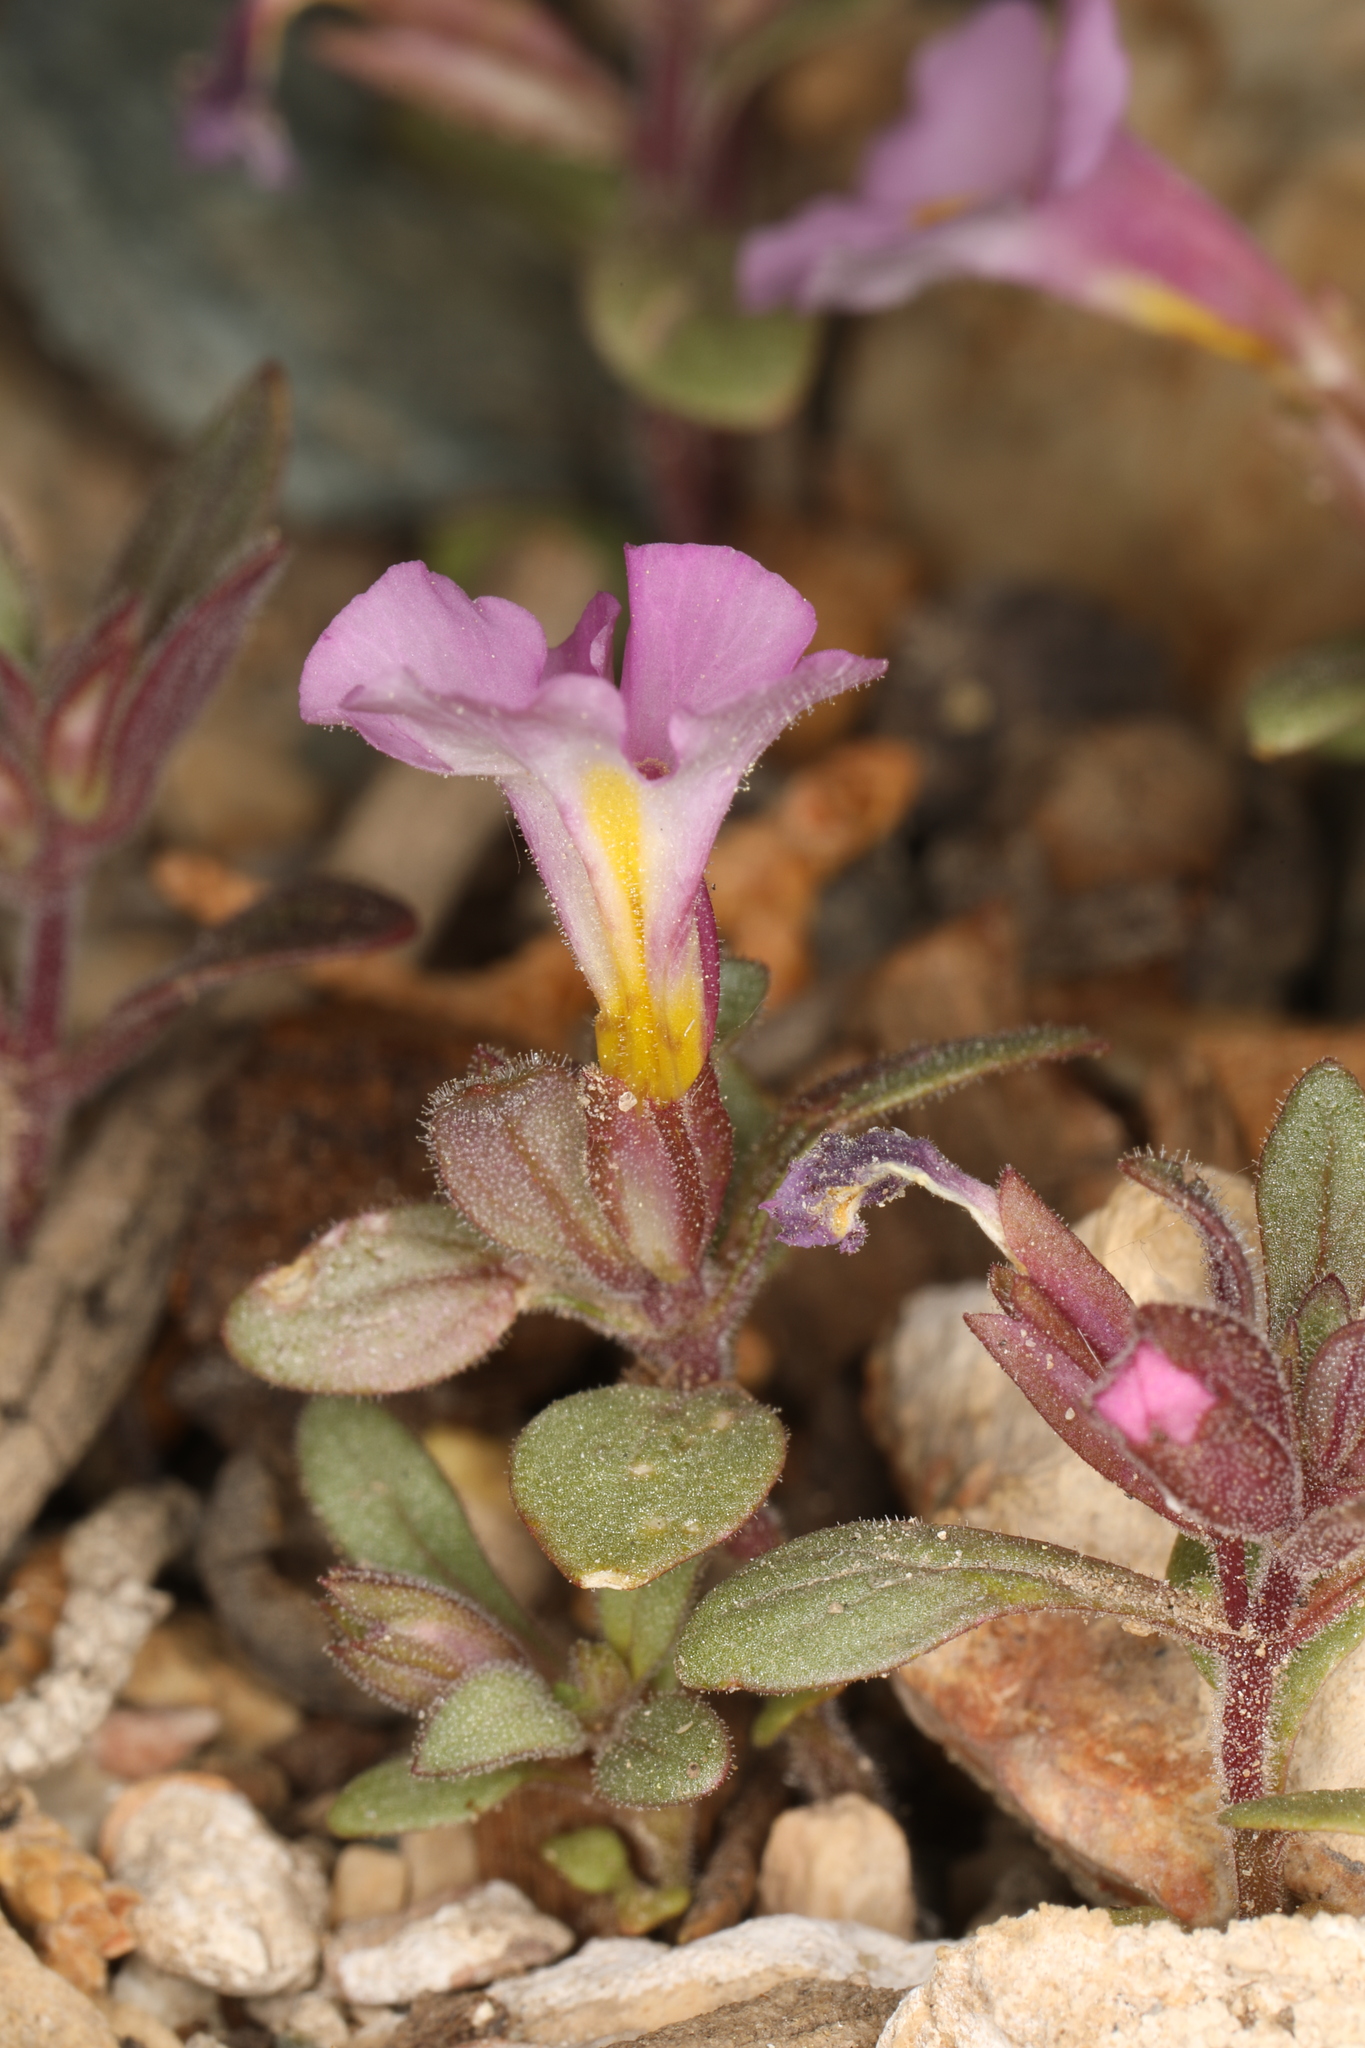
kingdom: Plantae
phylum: Tracheophyta
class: Magnoliopsida
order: Lamiales
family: Phrymaceae
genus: Diplacus
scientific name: Diplacus parryi
